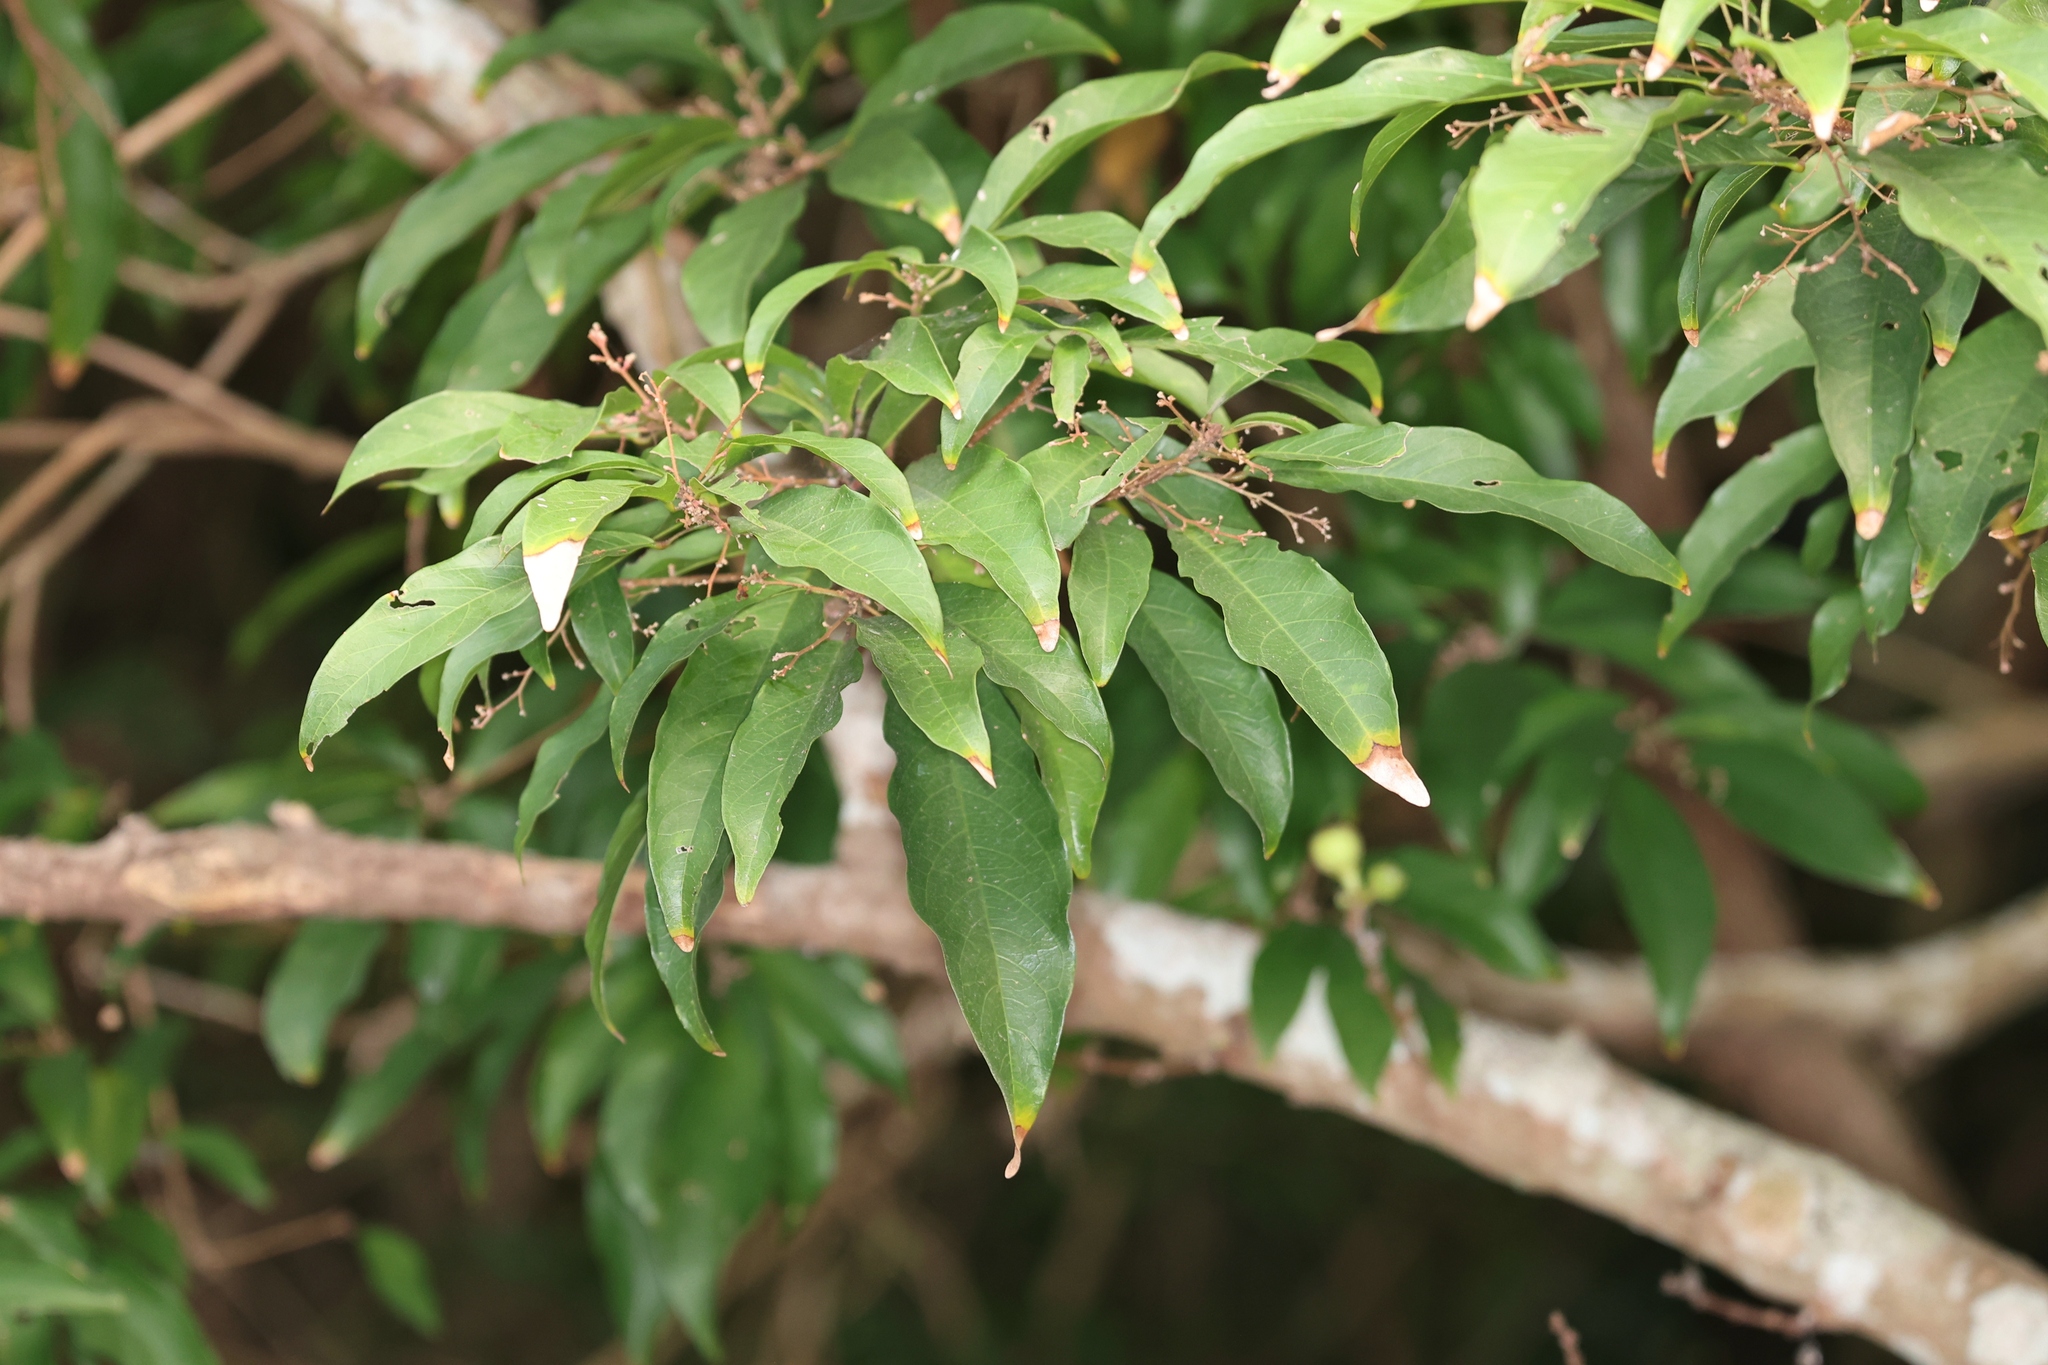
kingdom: Plantae
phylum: Tracheophyta
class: Magnoliopsida
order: Malvales
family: Malvaceae
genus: Sterculia
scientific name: Sterculia lanceolata
